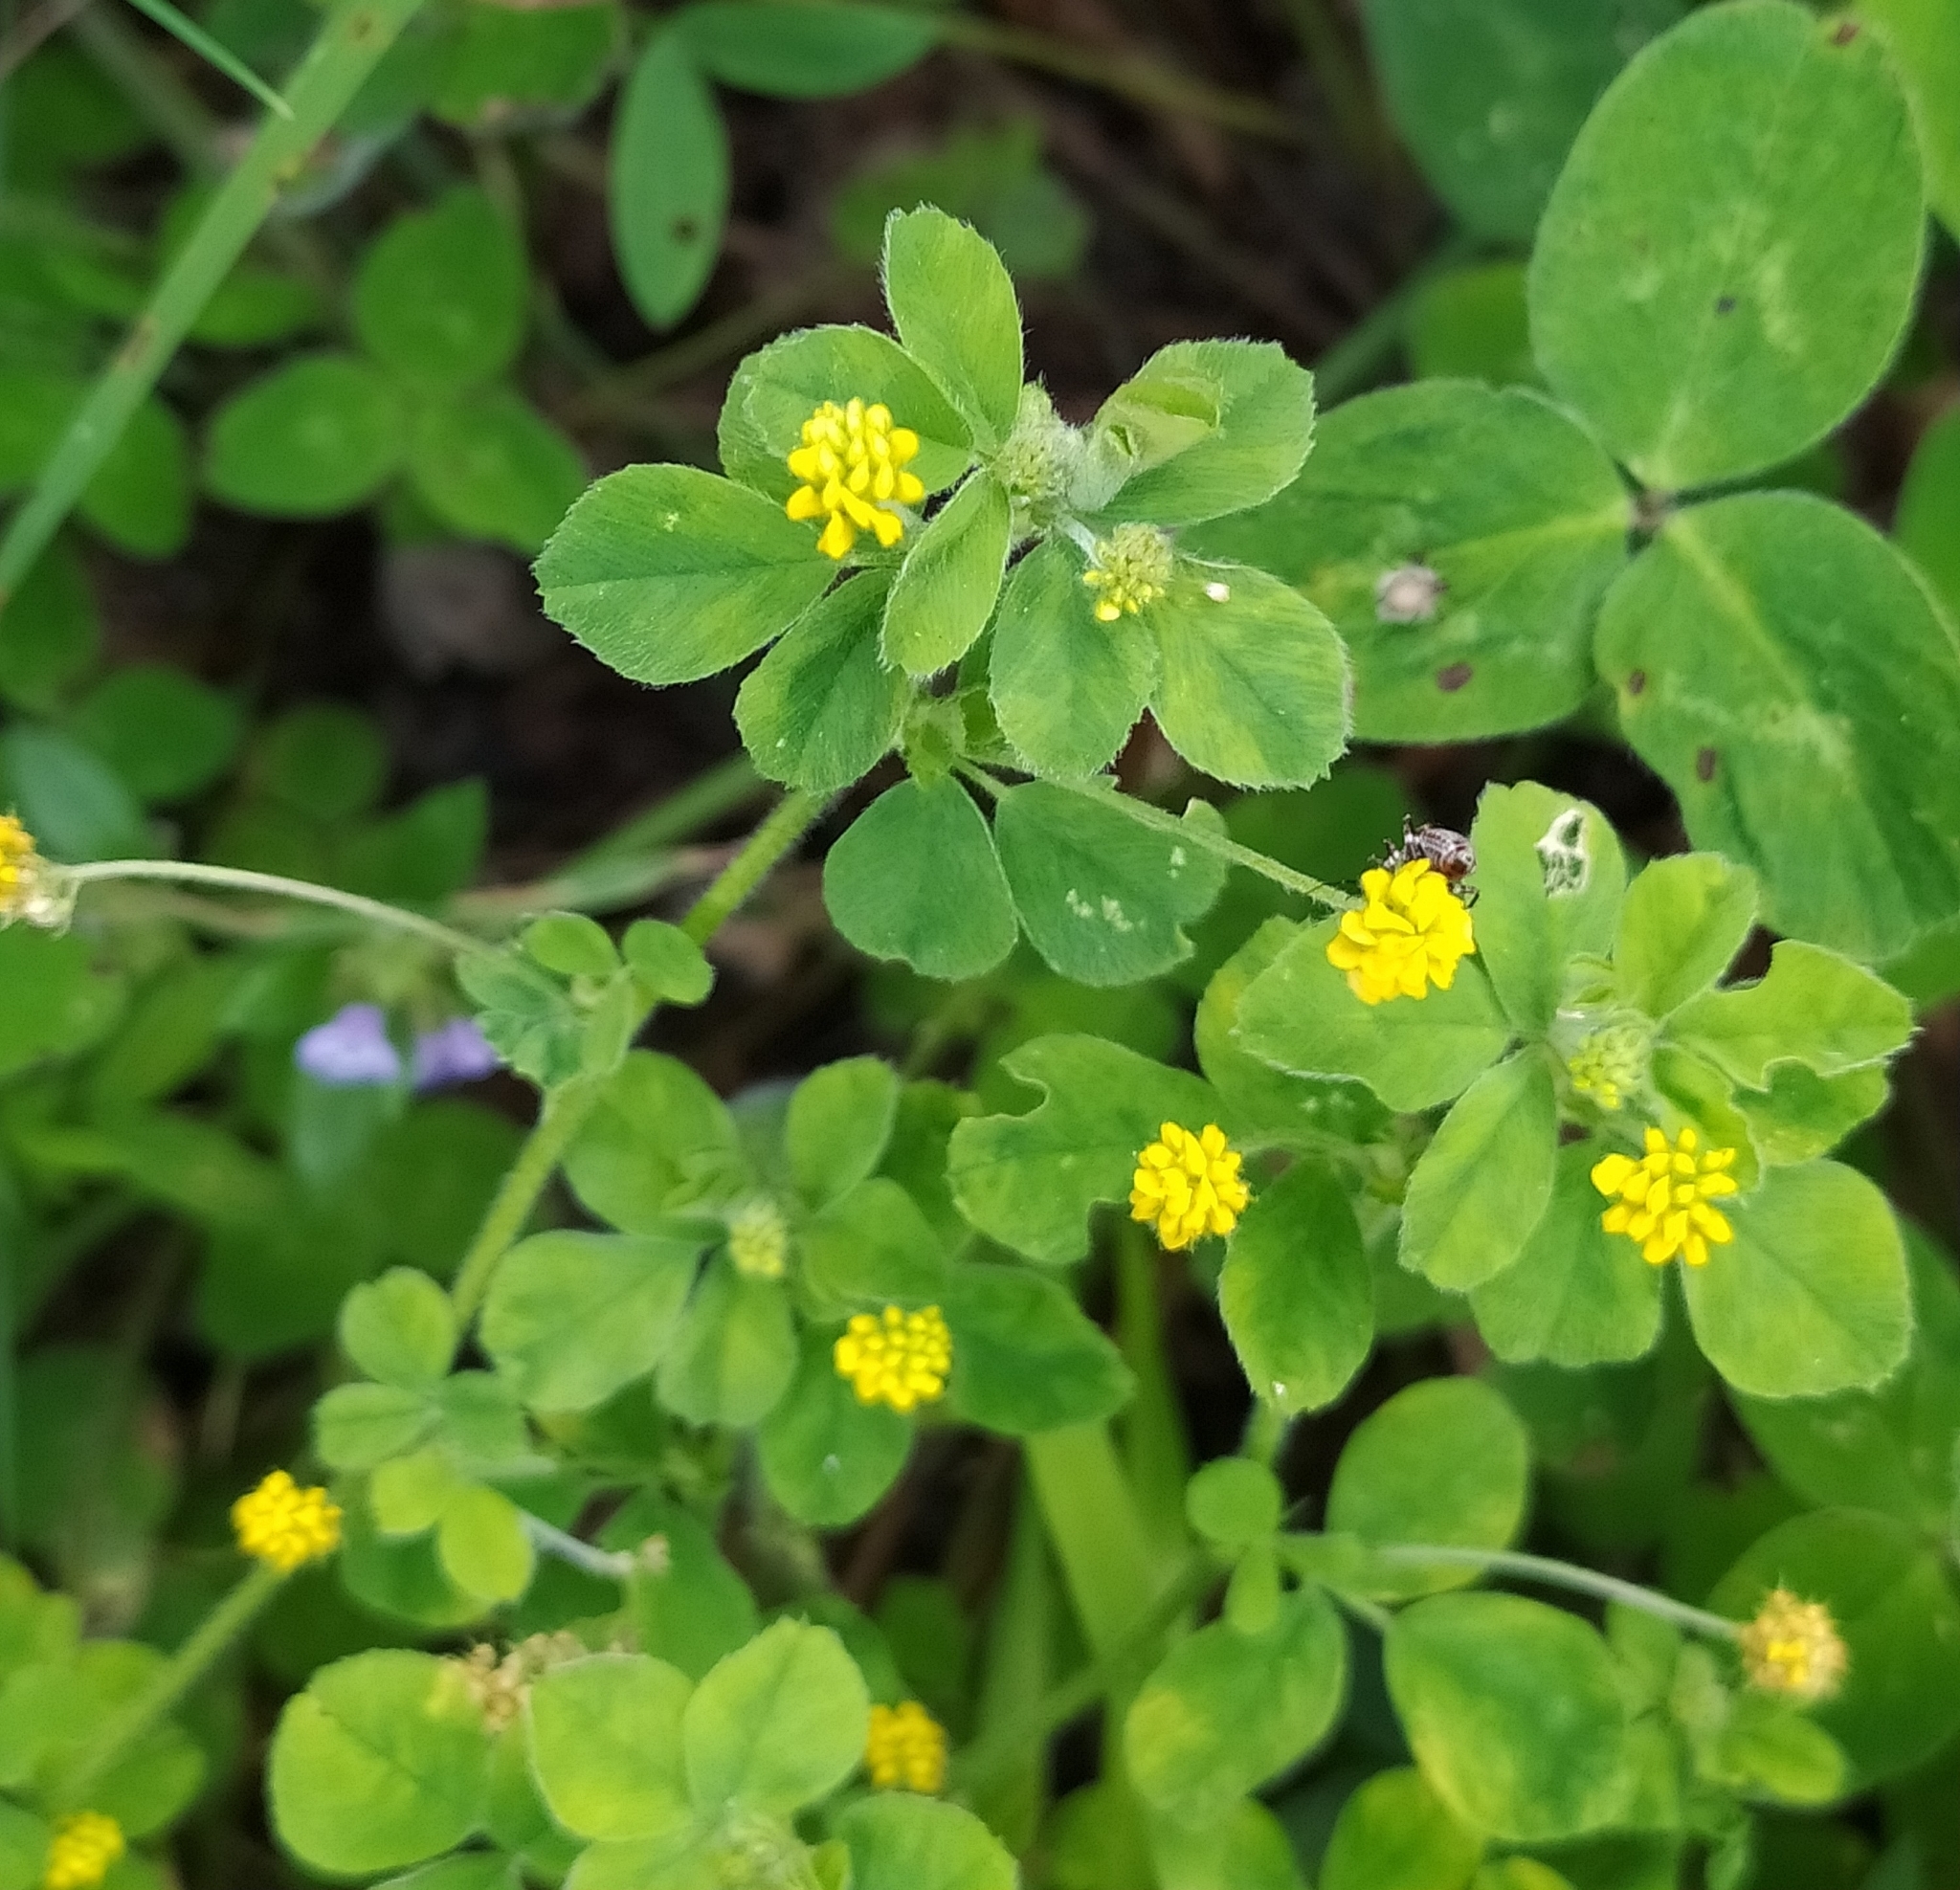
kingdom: Plantae
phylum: Tracheophyta
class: Magnoliopsida
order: Fabales
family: Fabaceae
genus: Medicago
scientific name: Medicago lupulina
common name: Black medick
